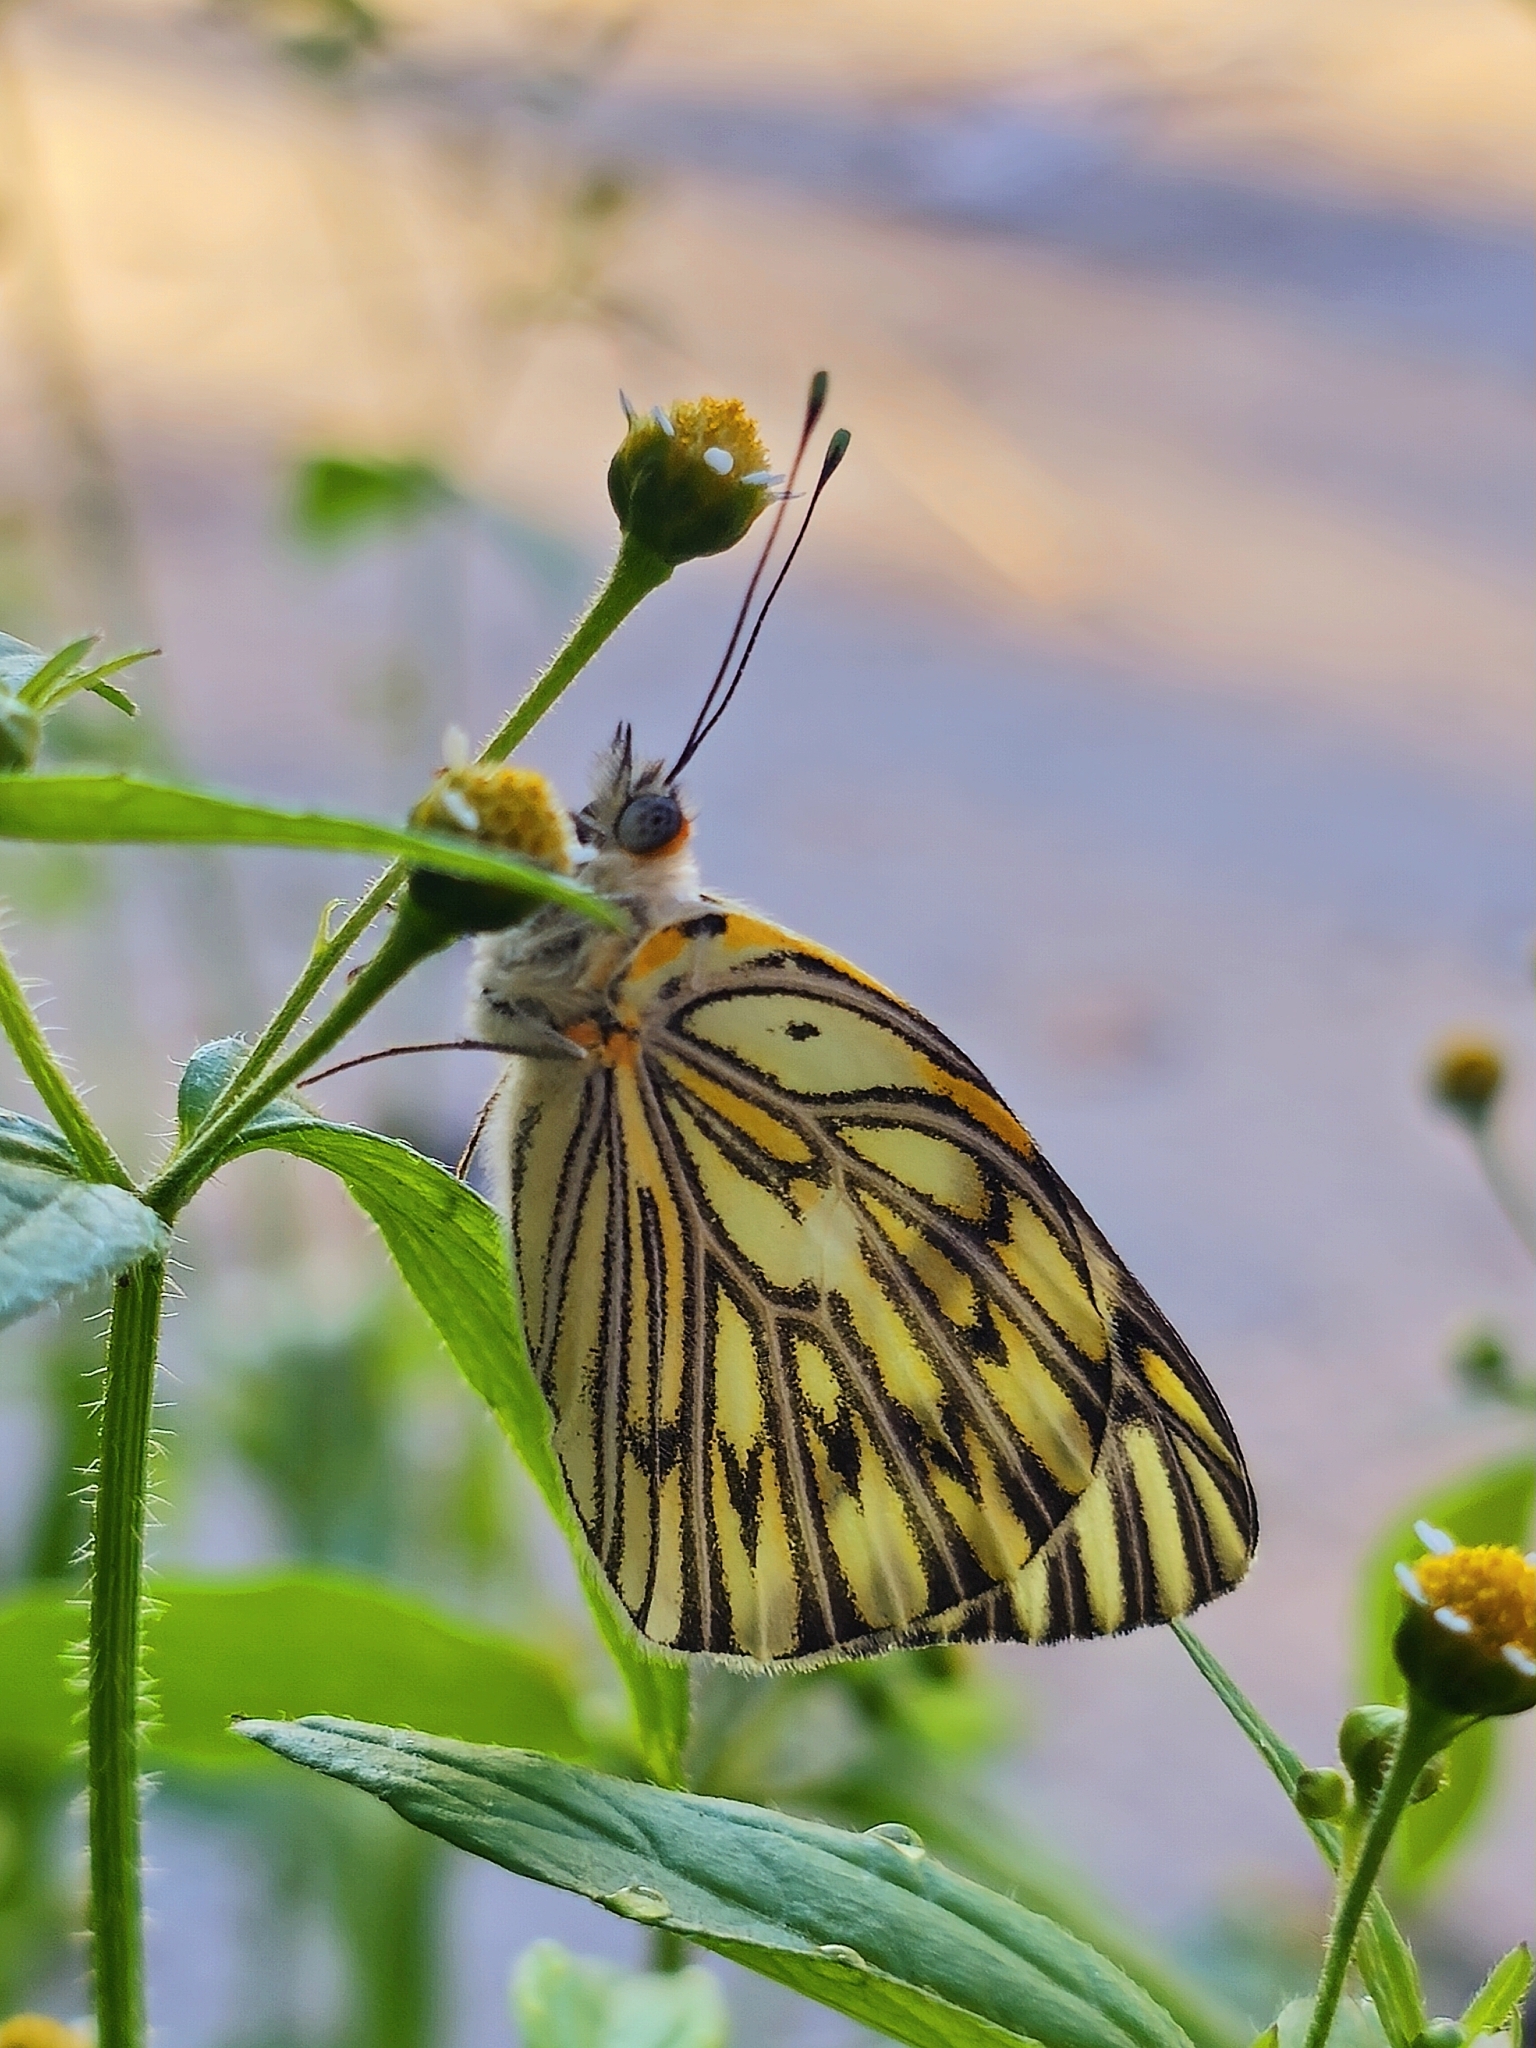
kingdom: Animalia
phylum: Arthropoda
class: Insecta
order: Lepidoptera
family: Pieridae
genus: Tatochila
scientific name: Tatochila autodice
